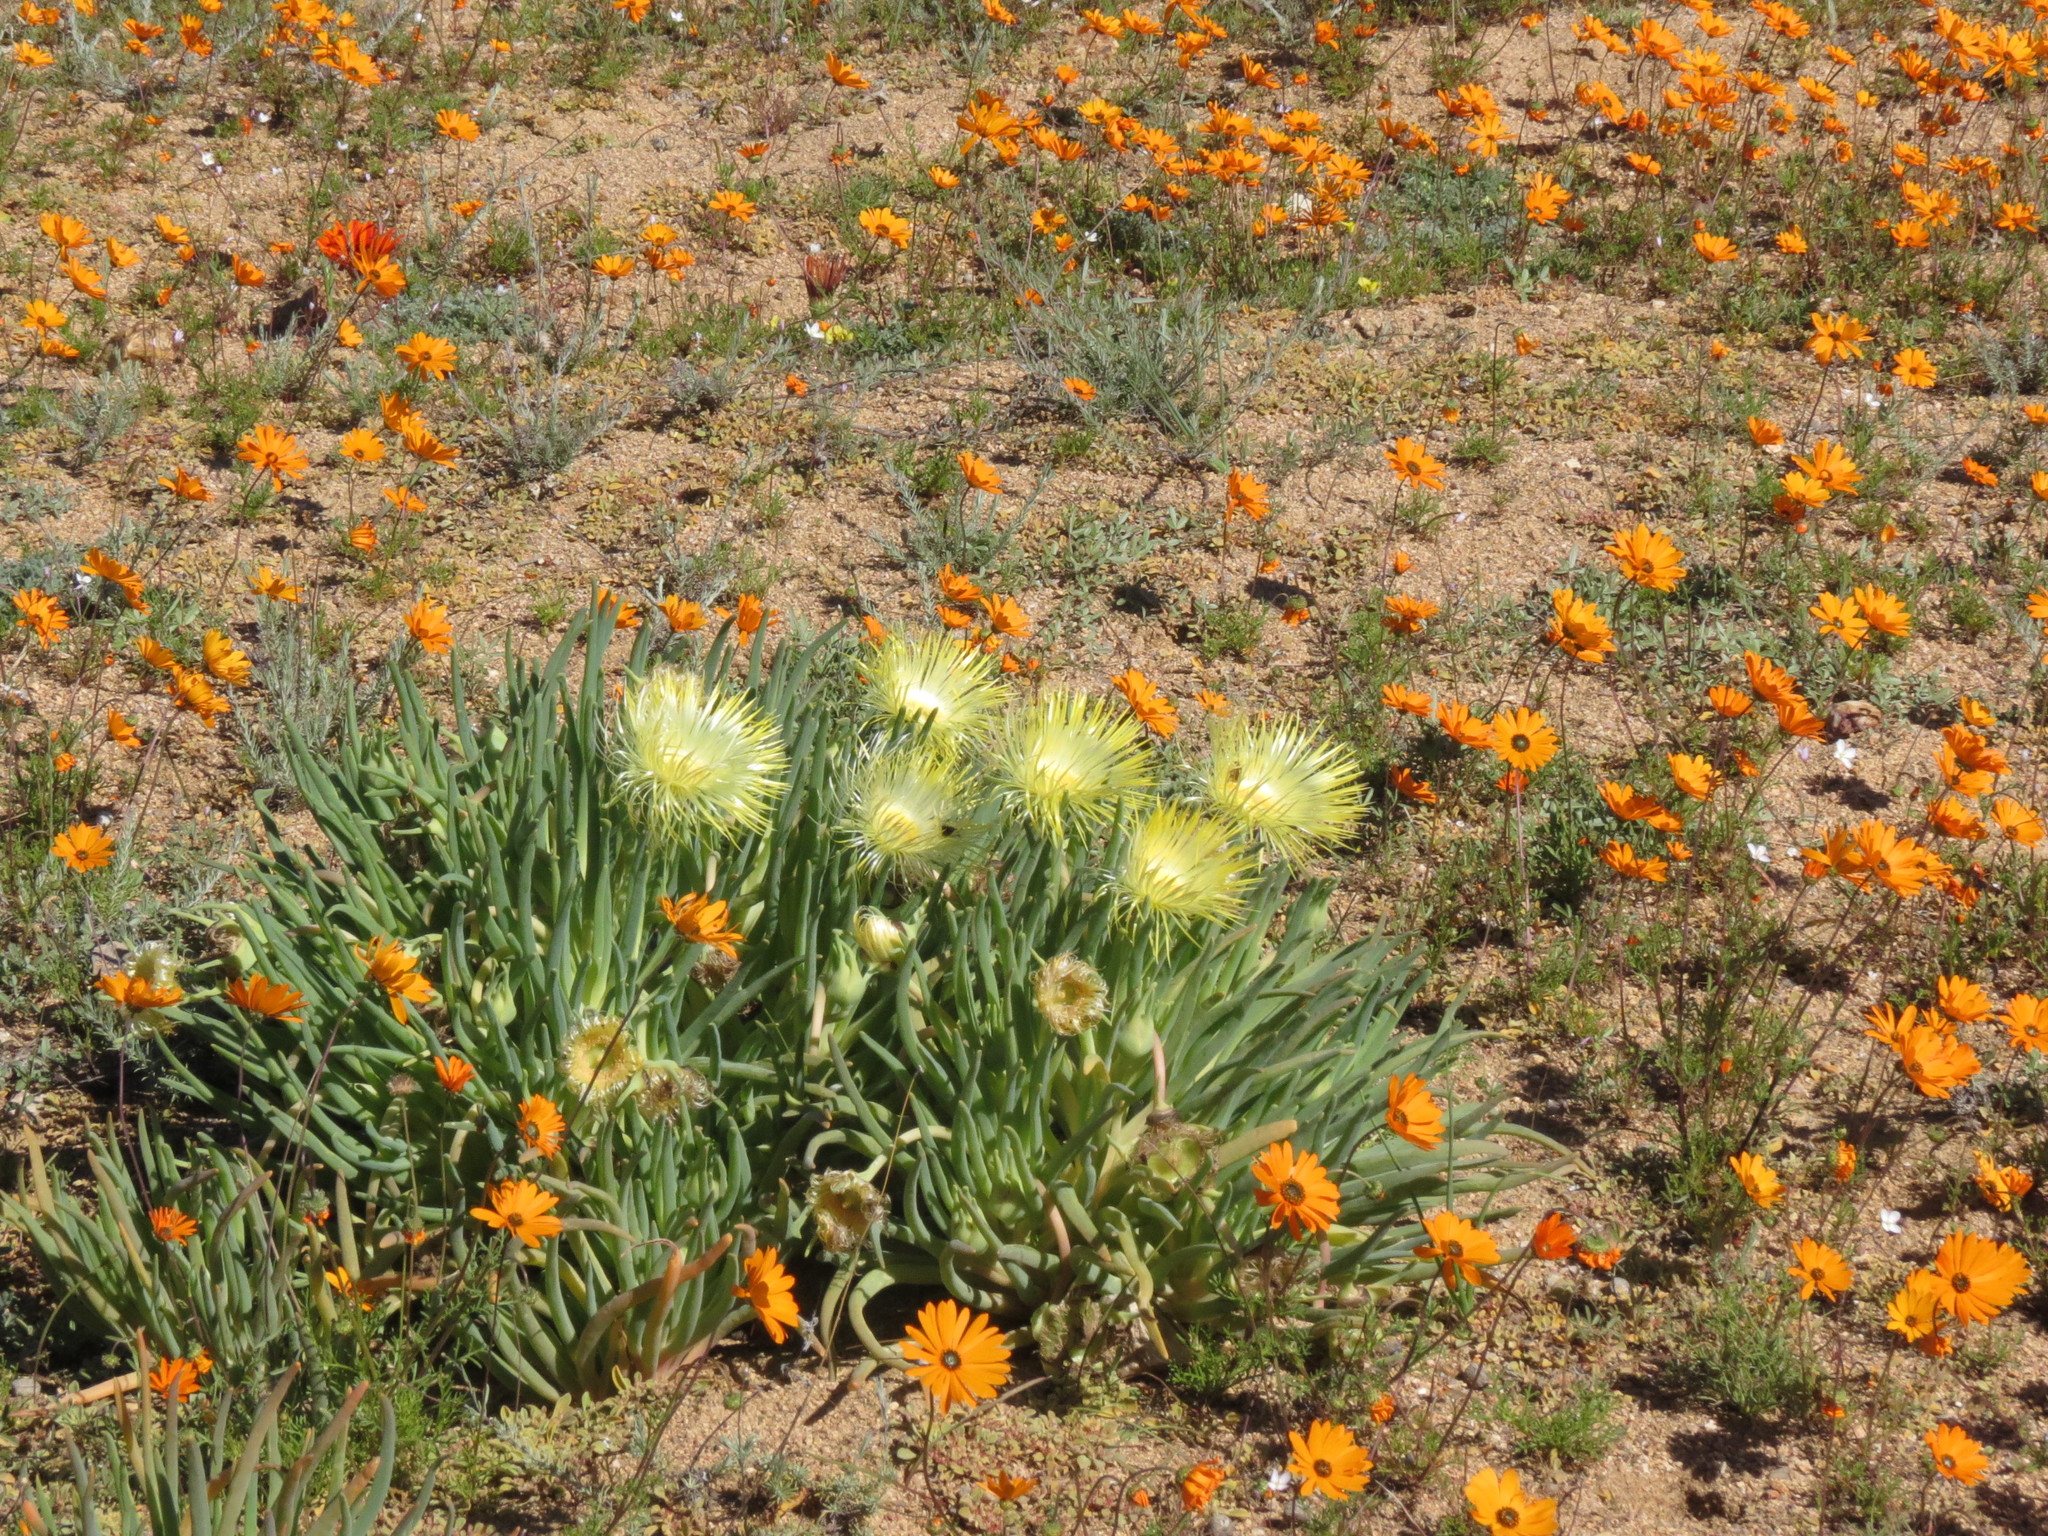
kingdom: Plantae
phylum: Tracheophyta
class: Magnoliopsida
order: Caryophyllales
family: Aizoaceae
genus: Conicosia
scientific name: Conicosia pugioniformis
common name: Narrow-leaved iceplant
